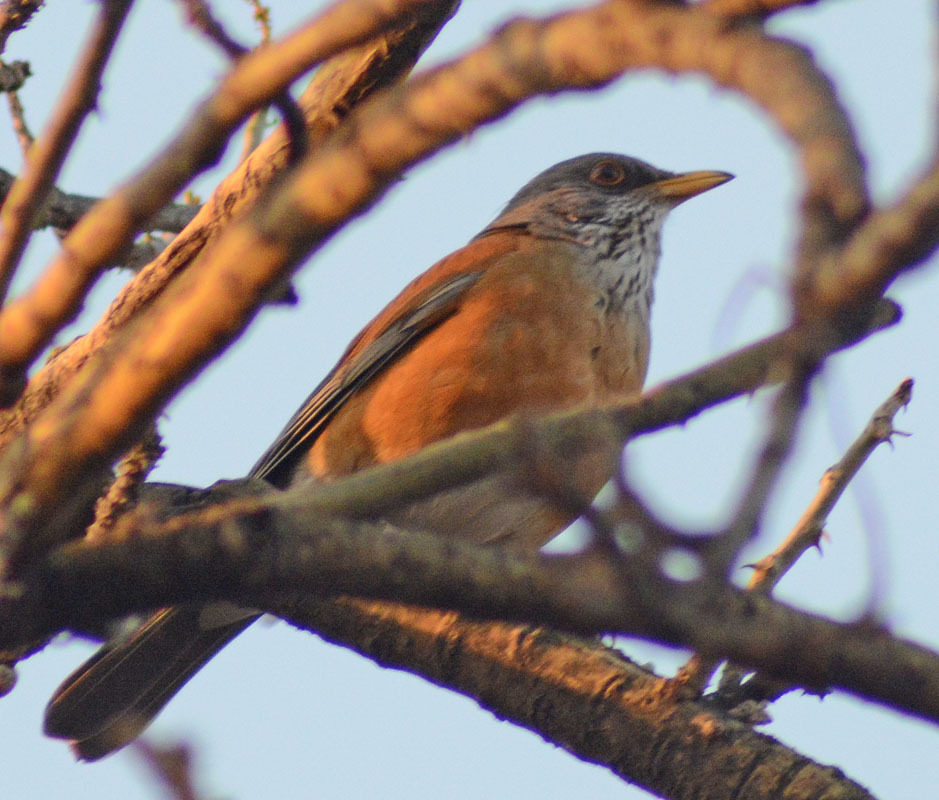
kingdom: Animalia
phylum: Chordata
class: Aves
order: Passeriformes
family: Turdidae
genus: Turdus
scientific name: Turdus rufopalliatus
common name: Rufous-backed robin
